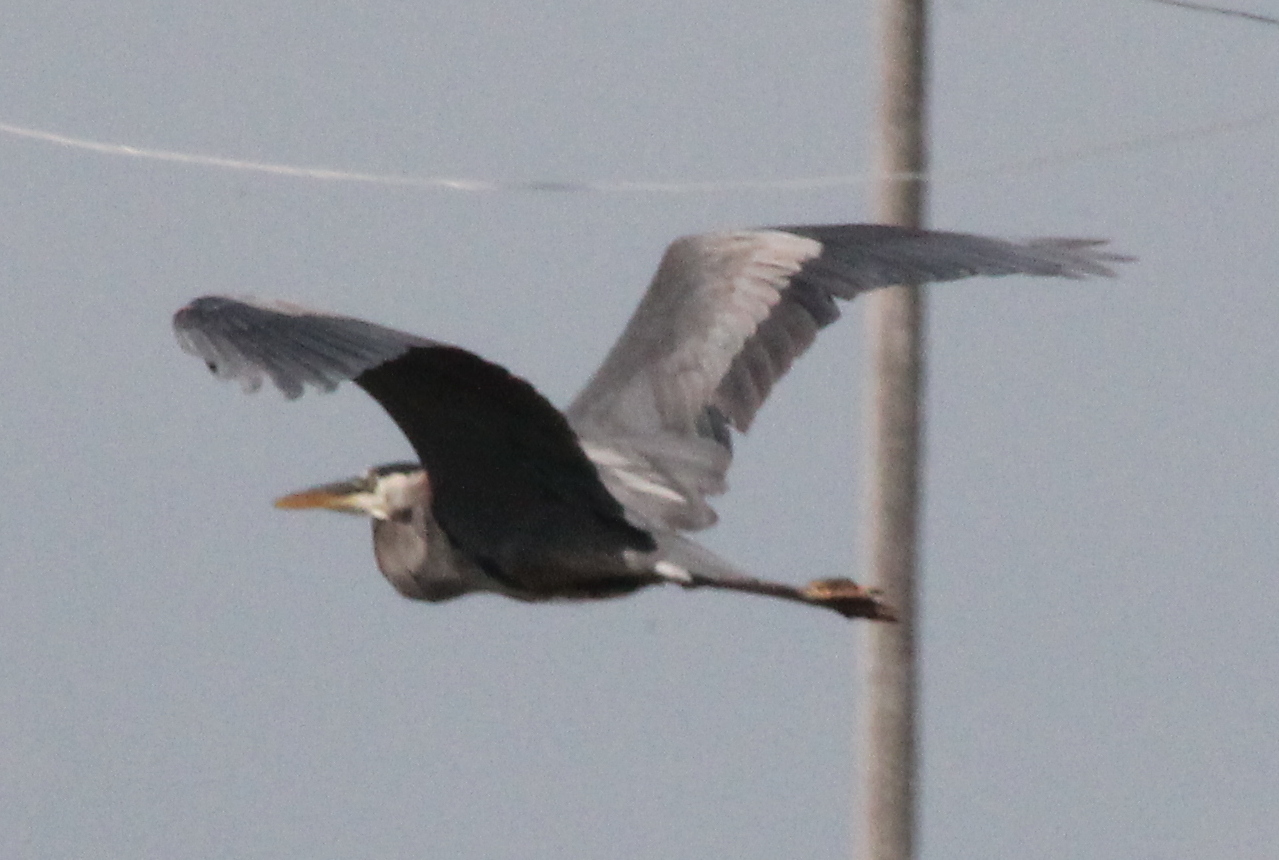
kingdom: Animalia
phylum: Chordata
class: Aves
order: Pelecaniformes
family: Ardeidae
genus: Ardea
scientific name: Ardea herodias
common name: Great blue heron
